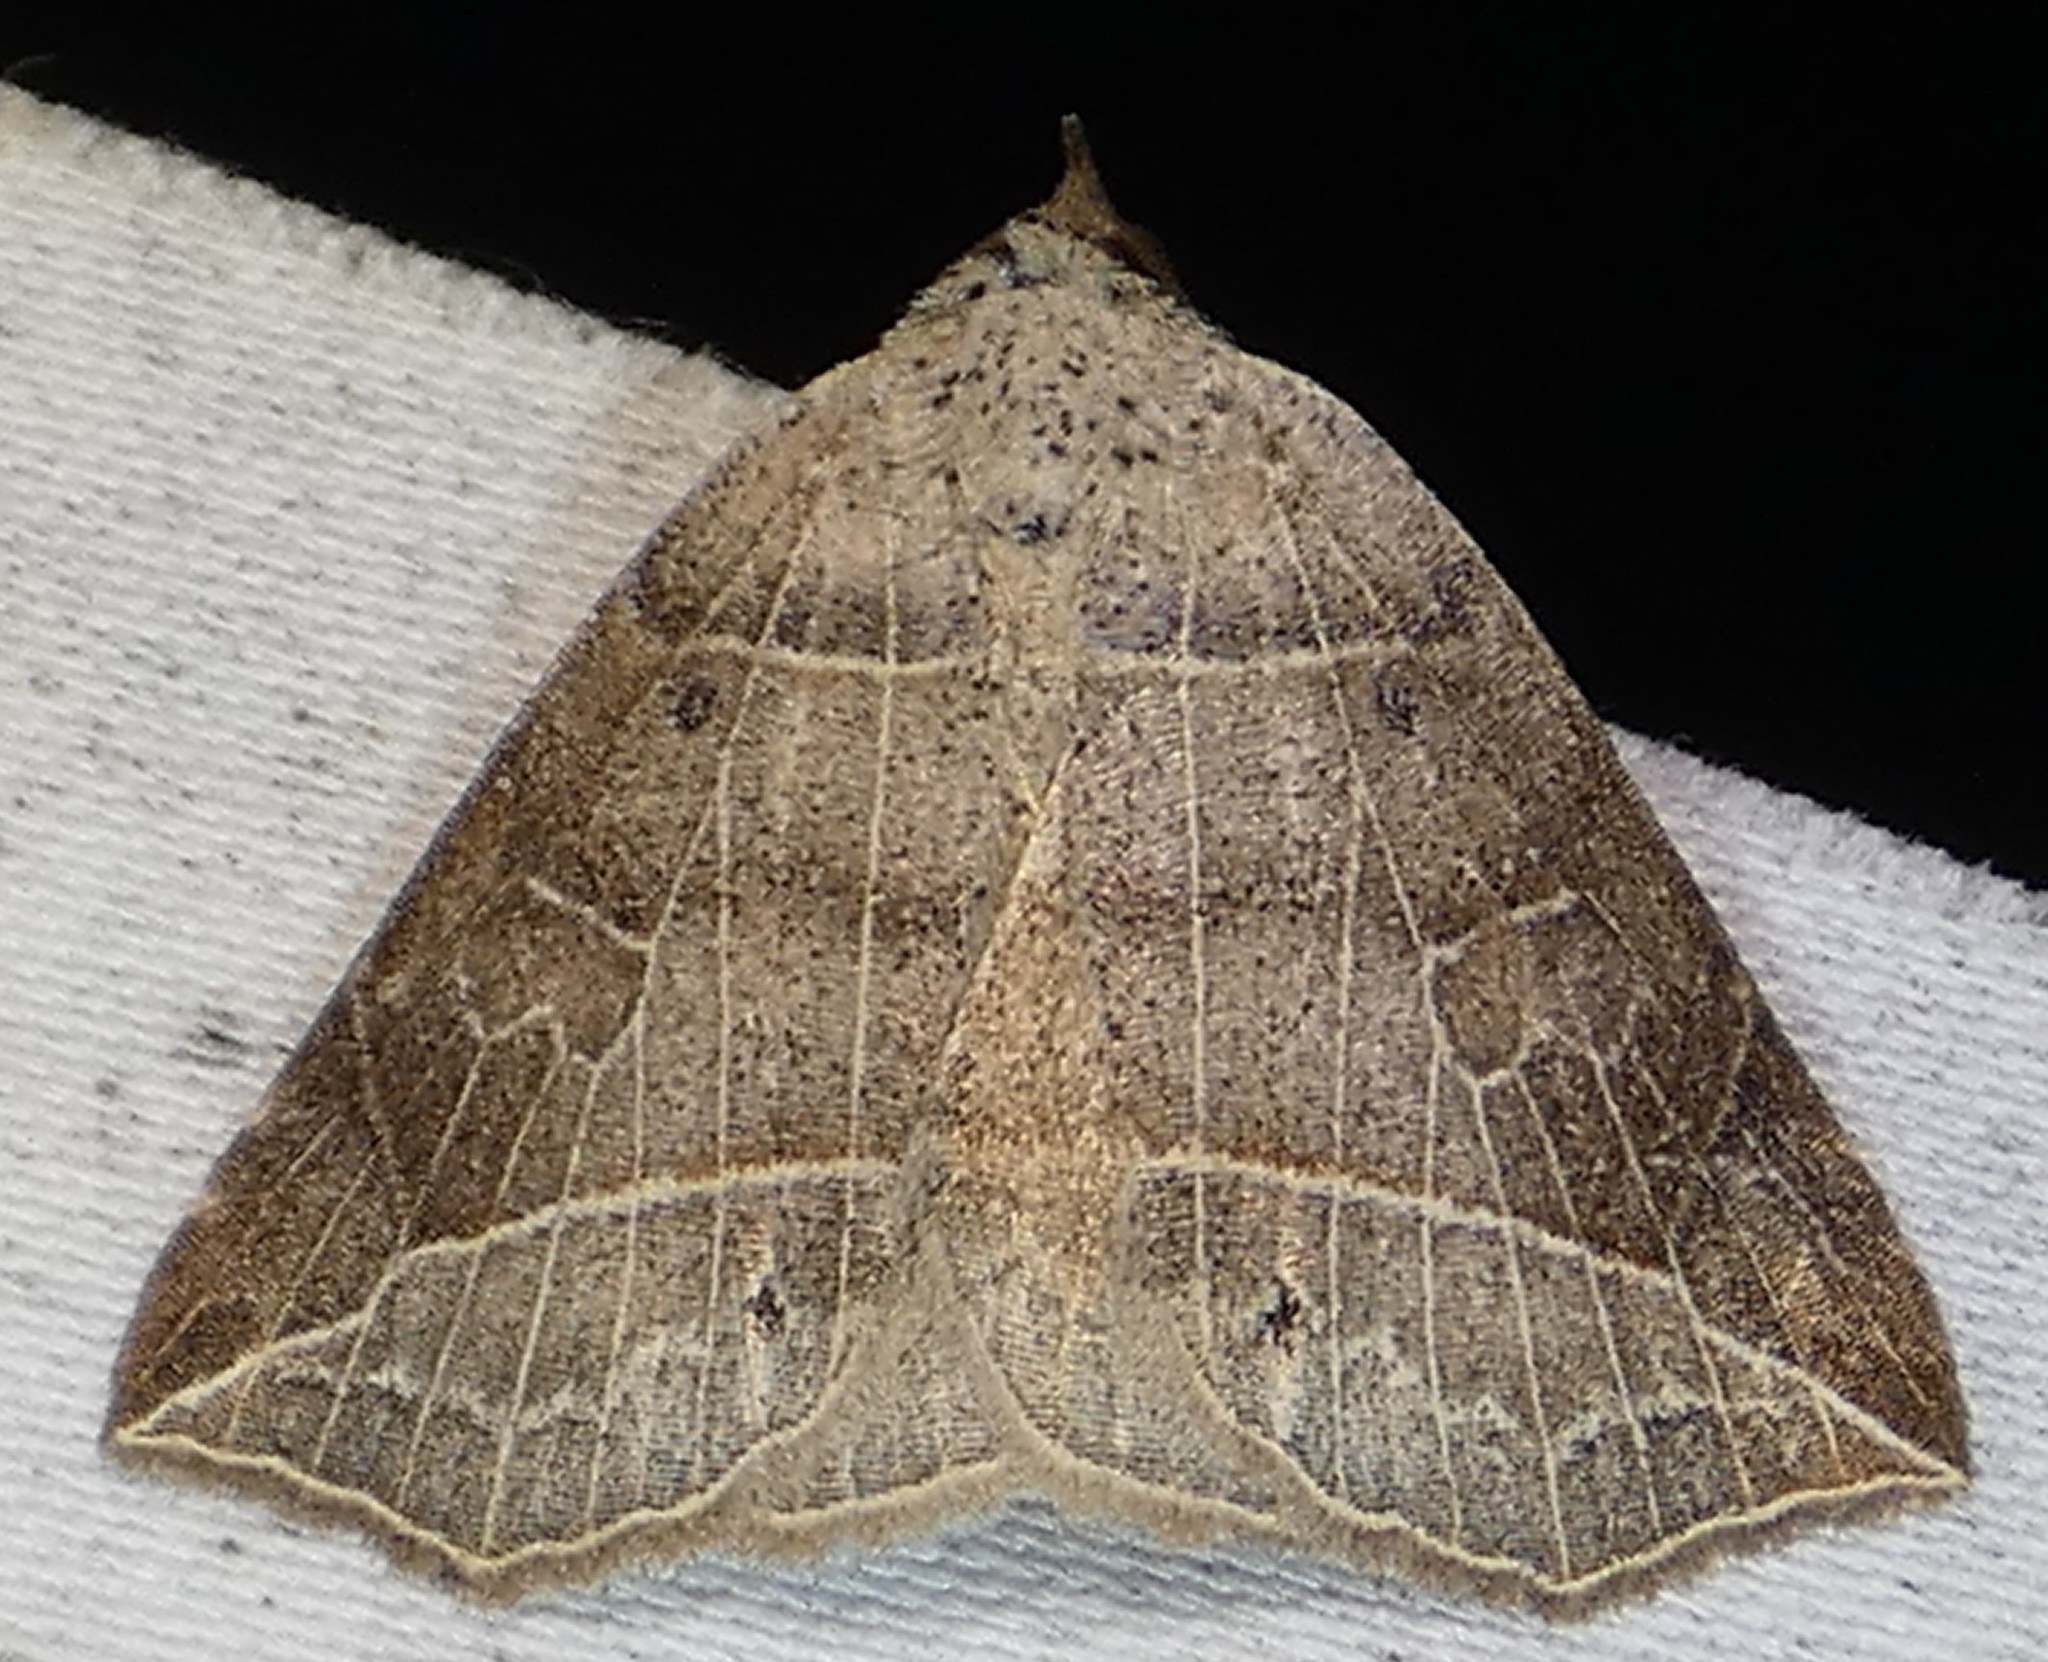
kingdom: Animalia
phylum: Arthropoda
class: Insecta
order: Lepidoptera
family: Erebidae
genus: Isogona
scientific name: Isogona tenuis
